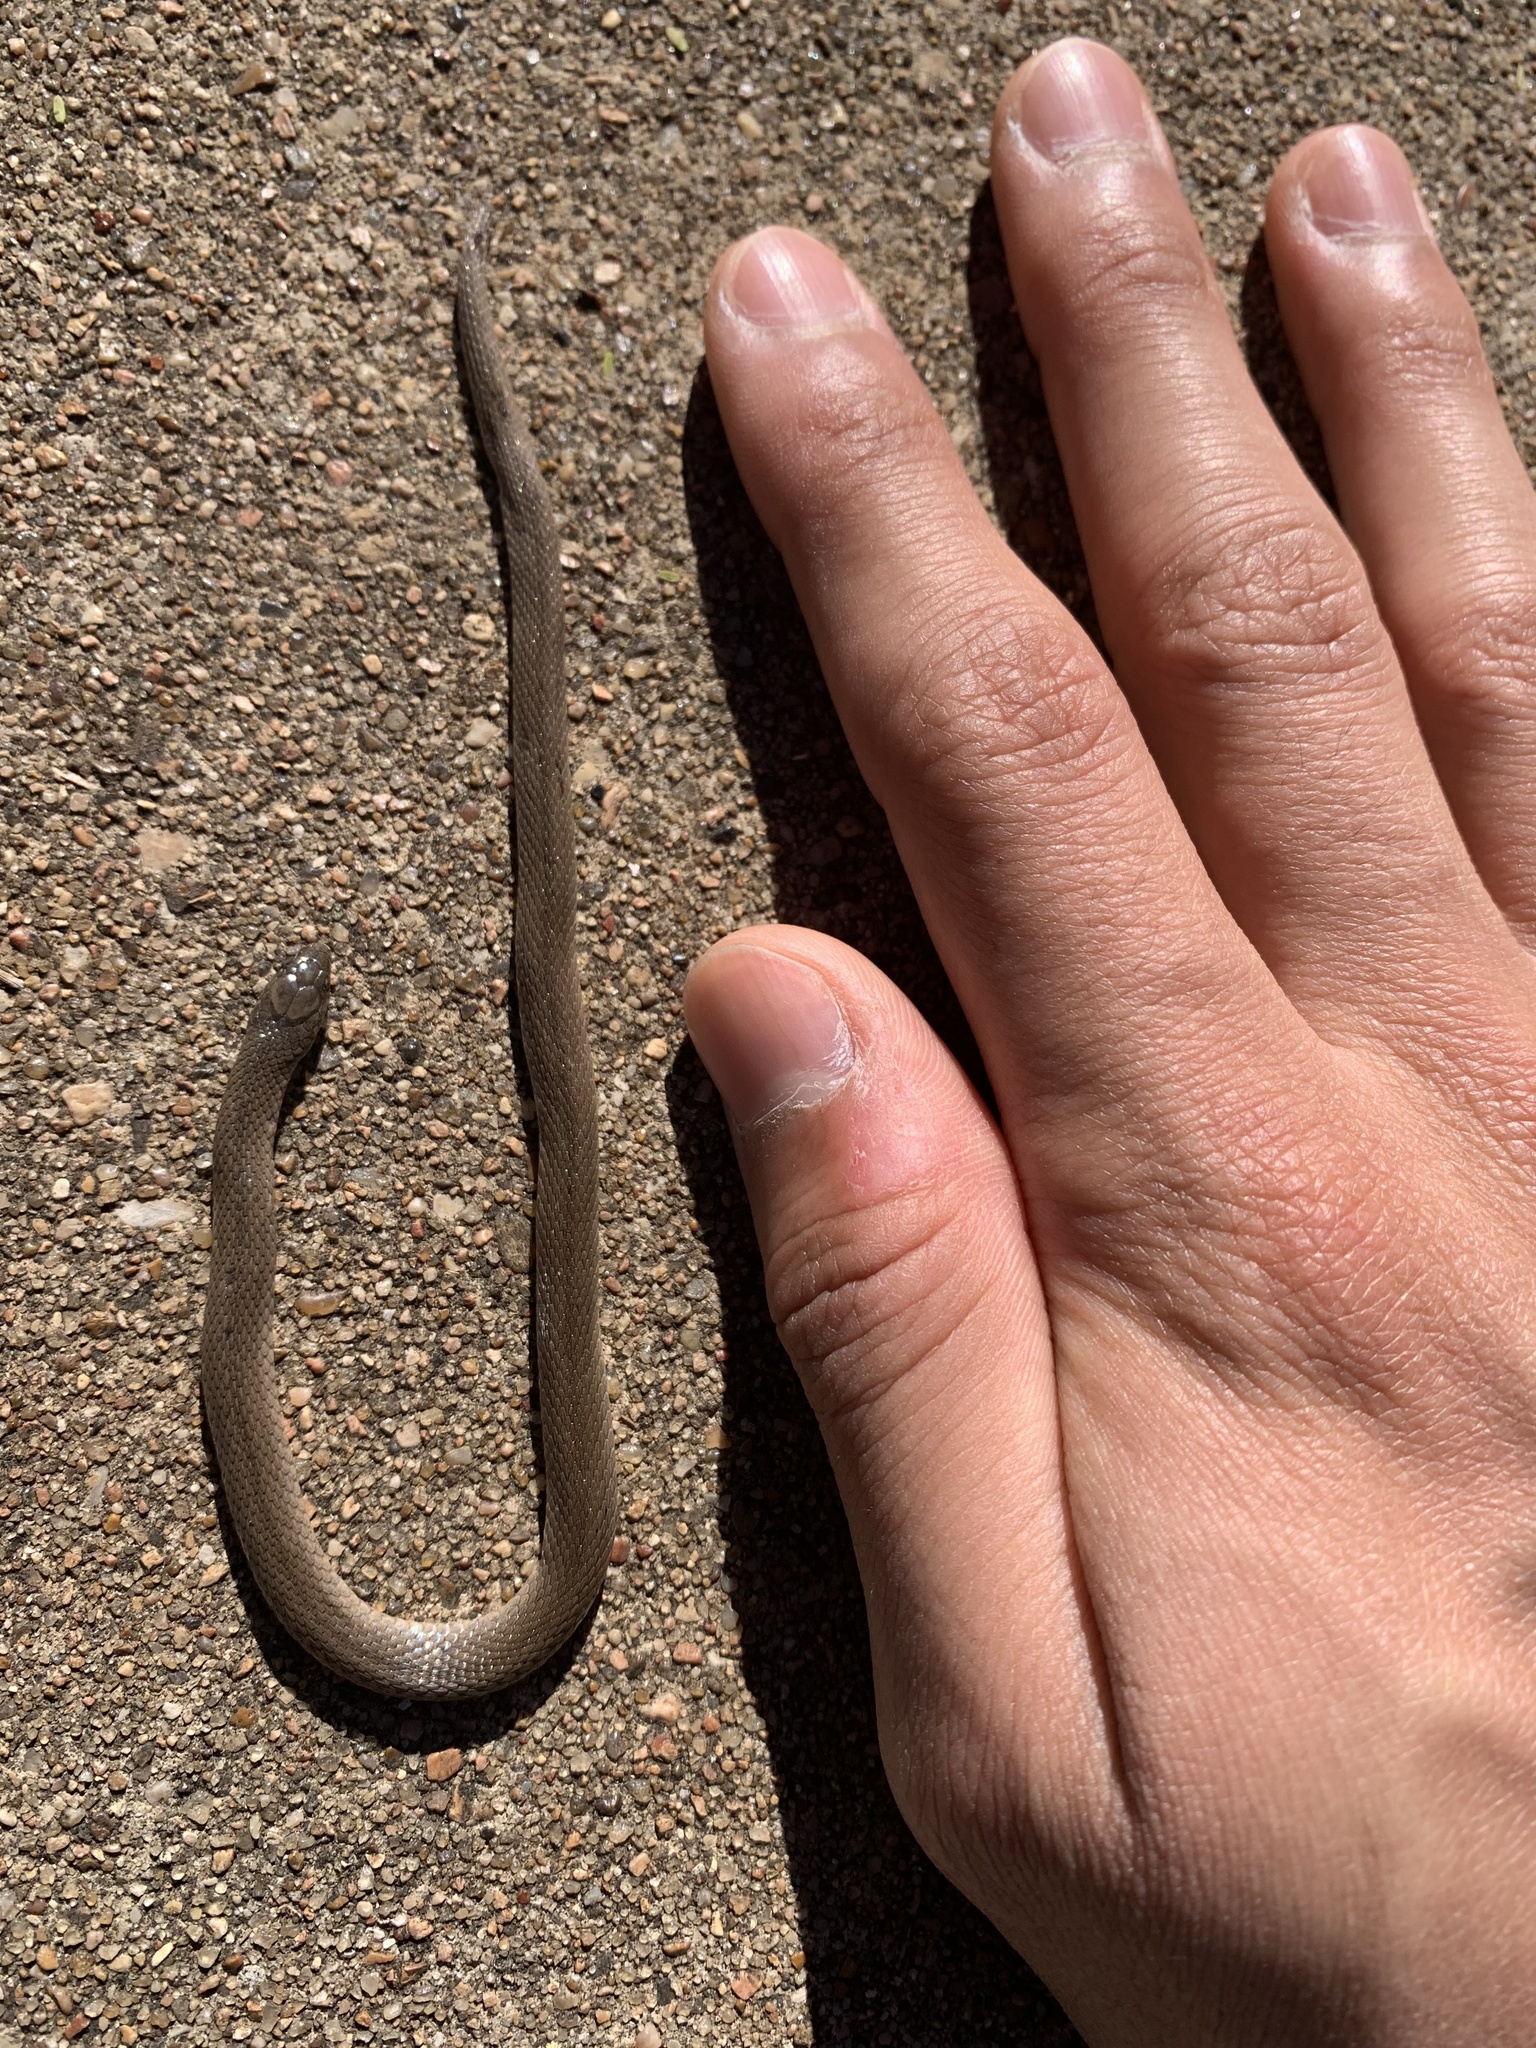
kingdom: Animalia
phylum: Chordata
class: Squamata
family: Colubridae
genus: Haldea
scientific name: Haldea striatula
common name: Rough earth snake
